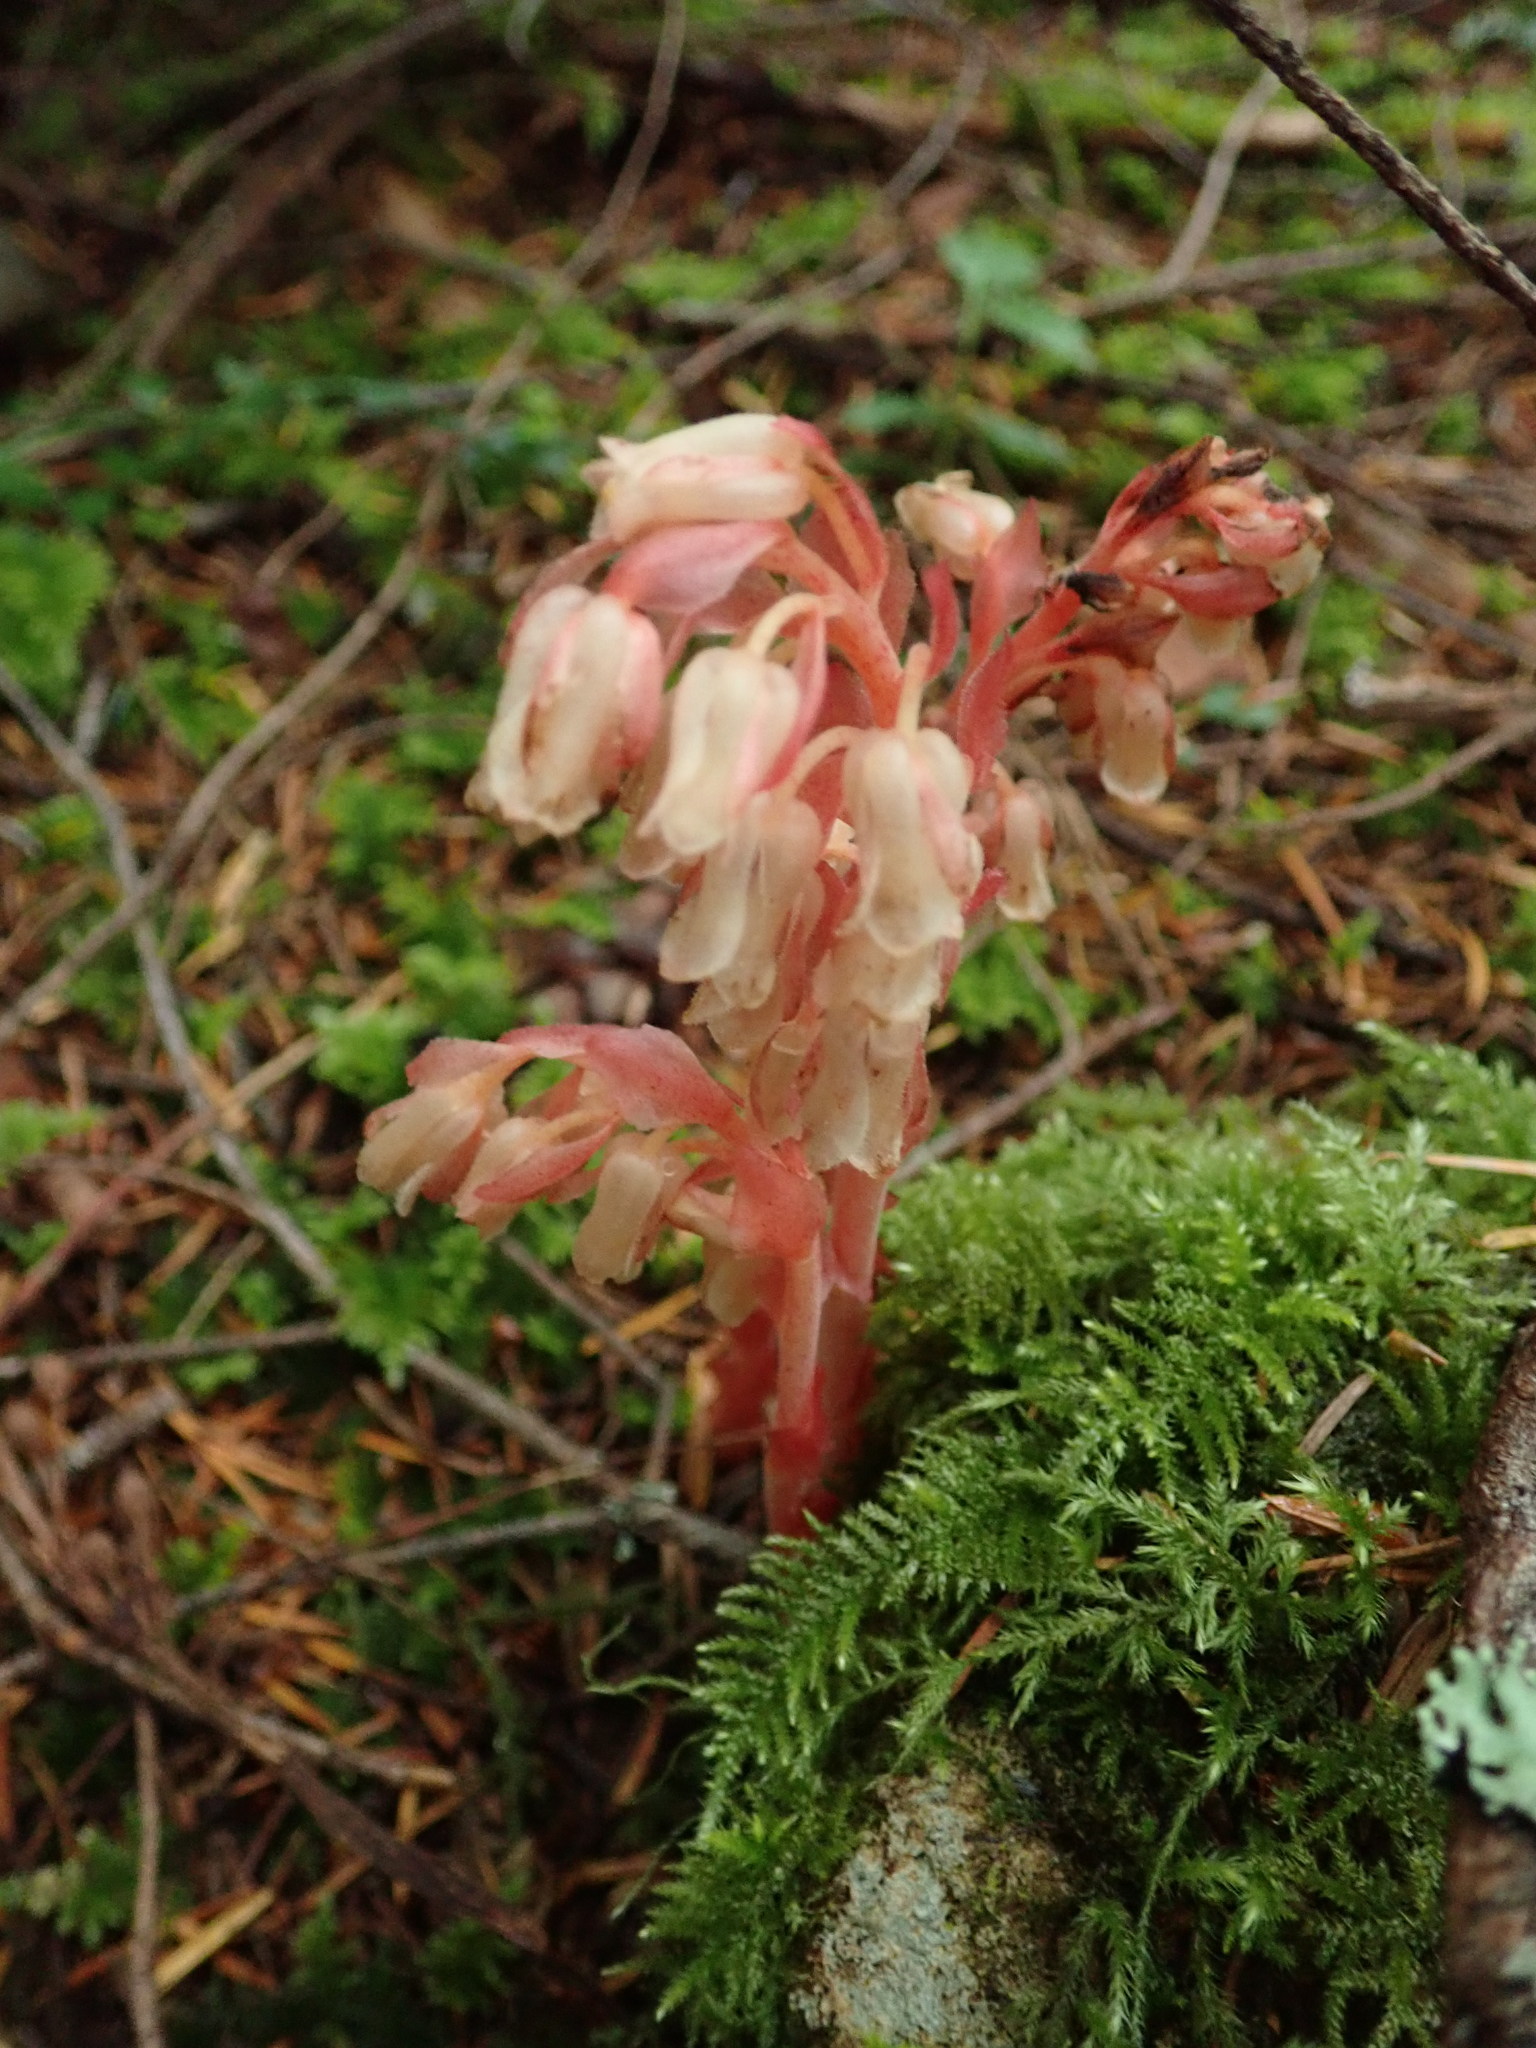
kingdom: Plantae
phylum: Tracheophyta
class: Magnoliopsida
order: Ericales
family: Ericaceae
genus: Hypopitys
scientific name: Hypopitys monotropa
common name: Yellow bird's-nest
